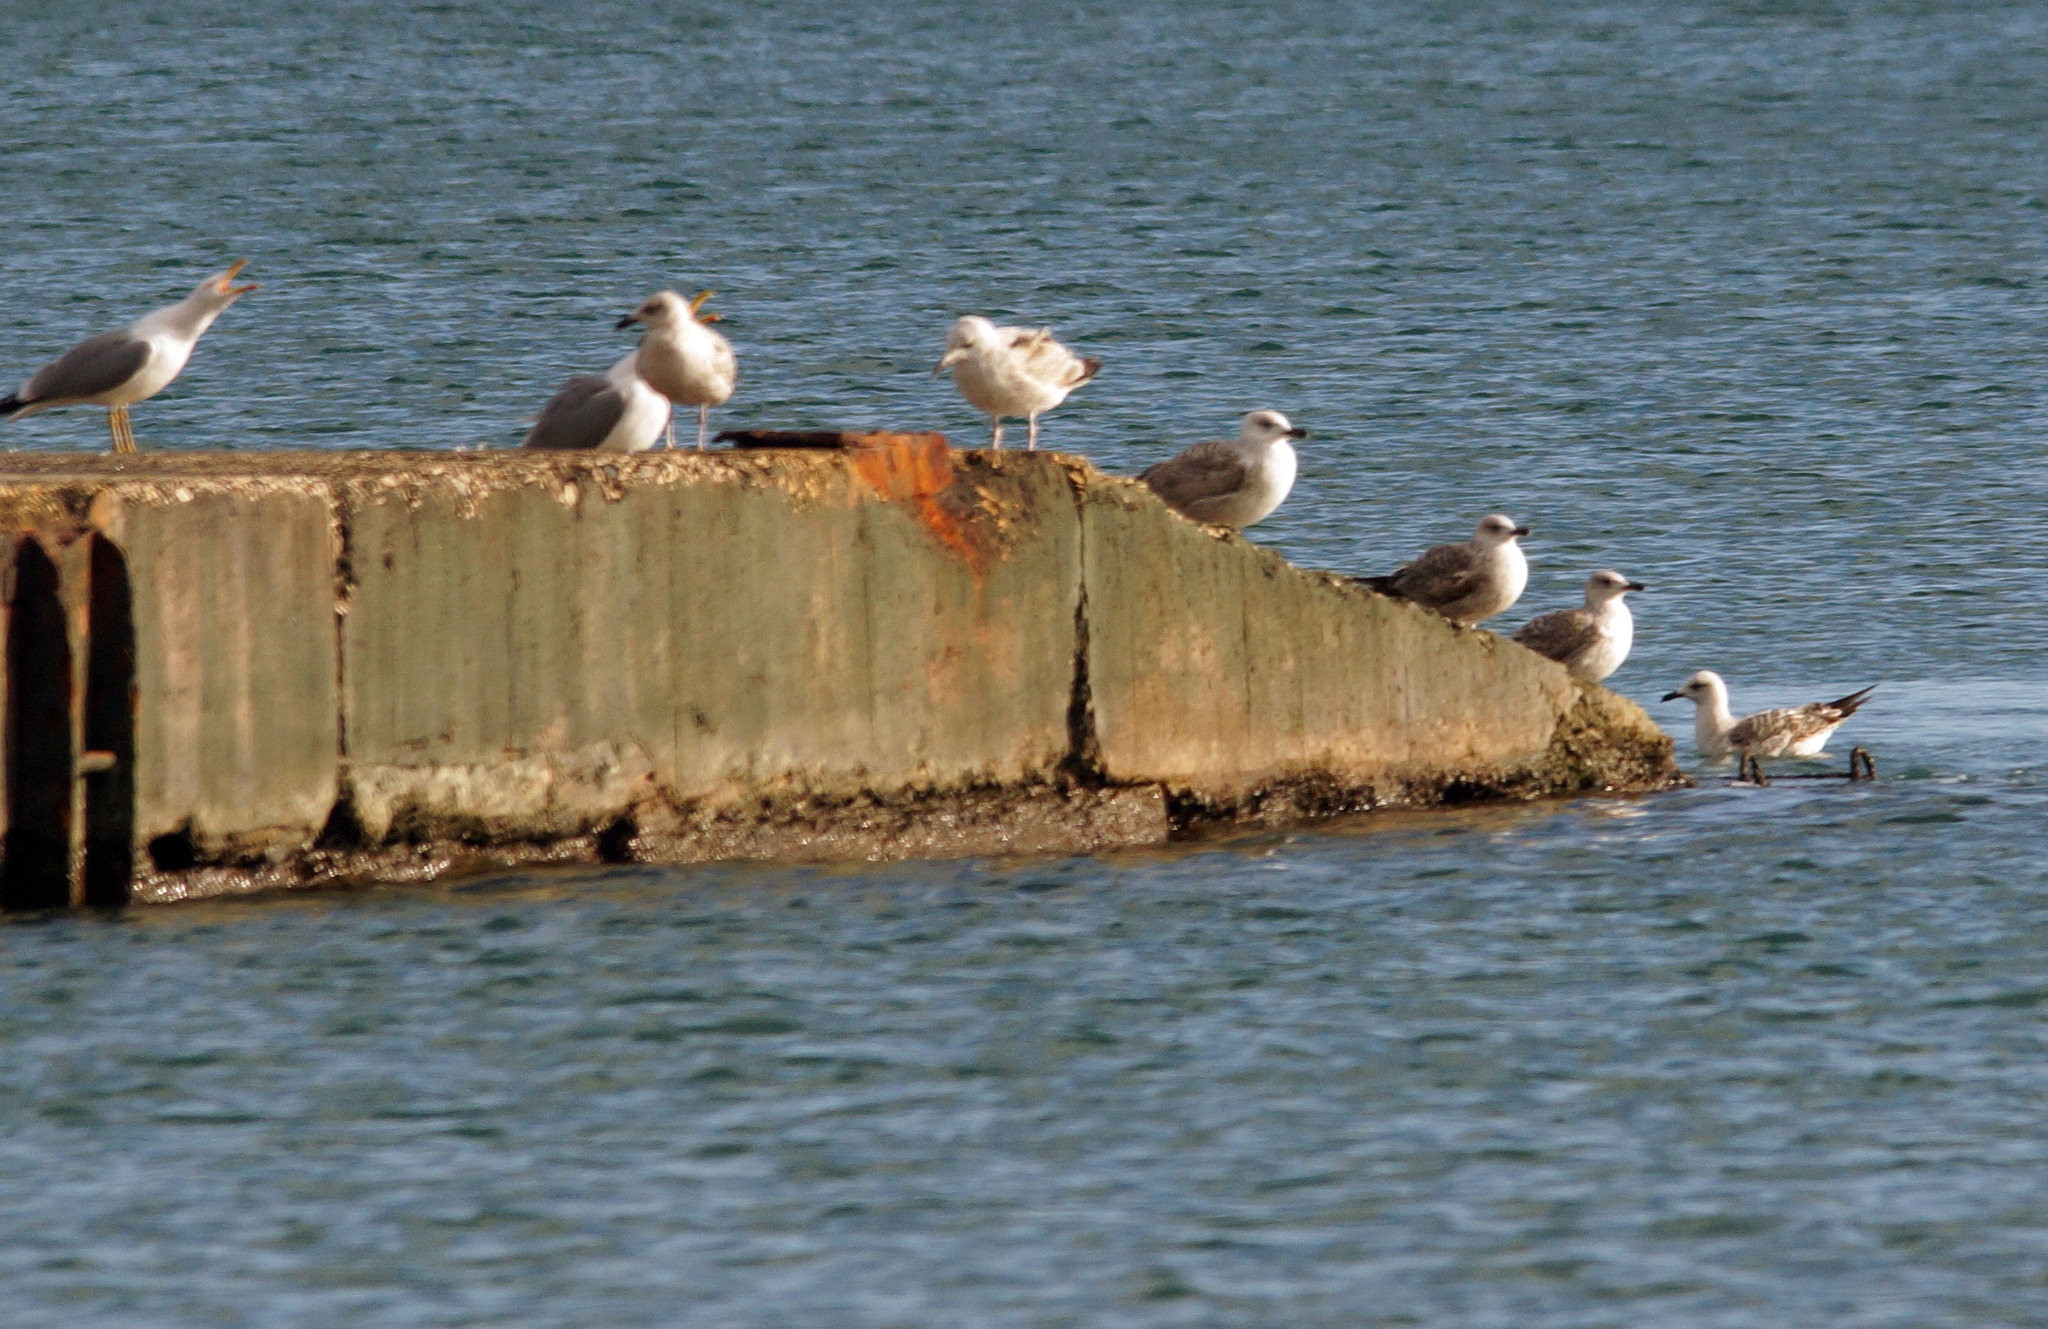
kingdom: Animalia
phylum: Chordata
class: Aves
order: Charadriiformes
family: Laridae
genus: Larus
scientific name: Larus michahellis
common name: Yellow-legged gull
